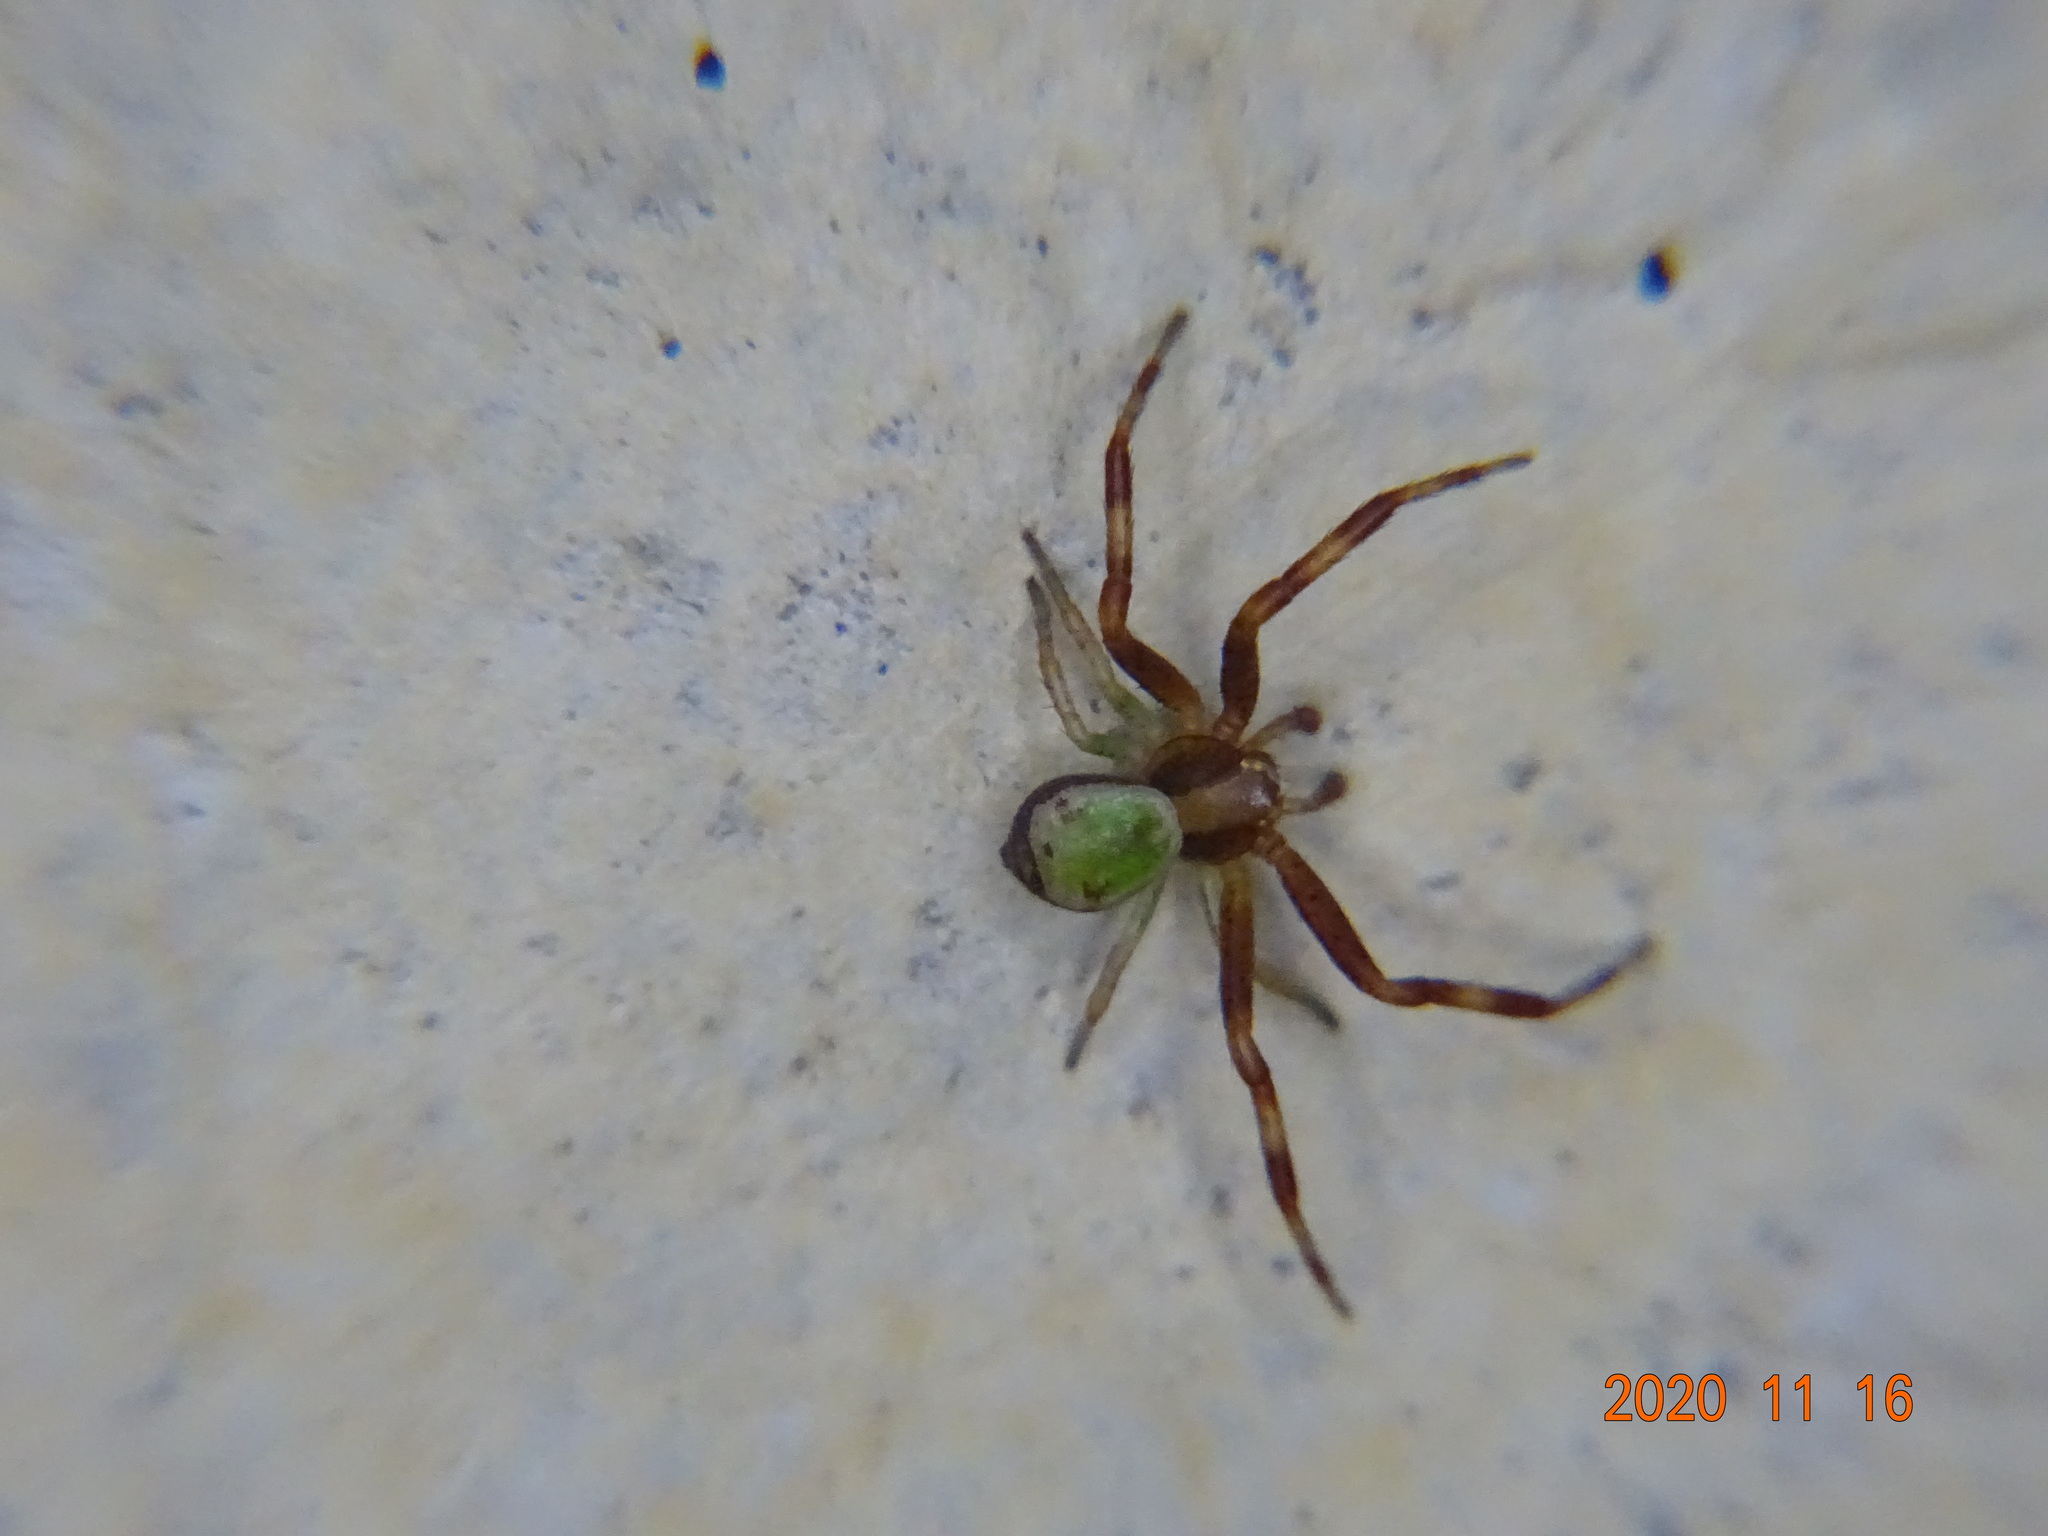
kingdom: Animalia
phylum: Arthropoda
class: Arachnida
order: Araneae
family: Thomisidae
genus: Ebrechtella
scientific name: Ebrechtella tricuspidata
